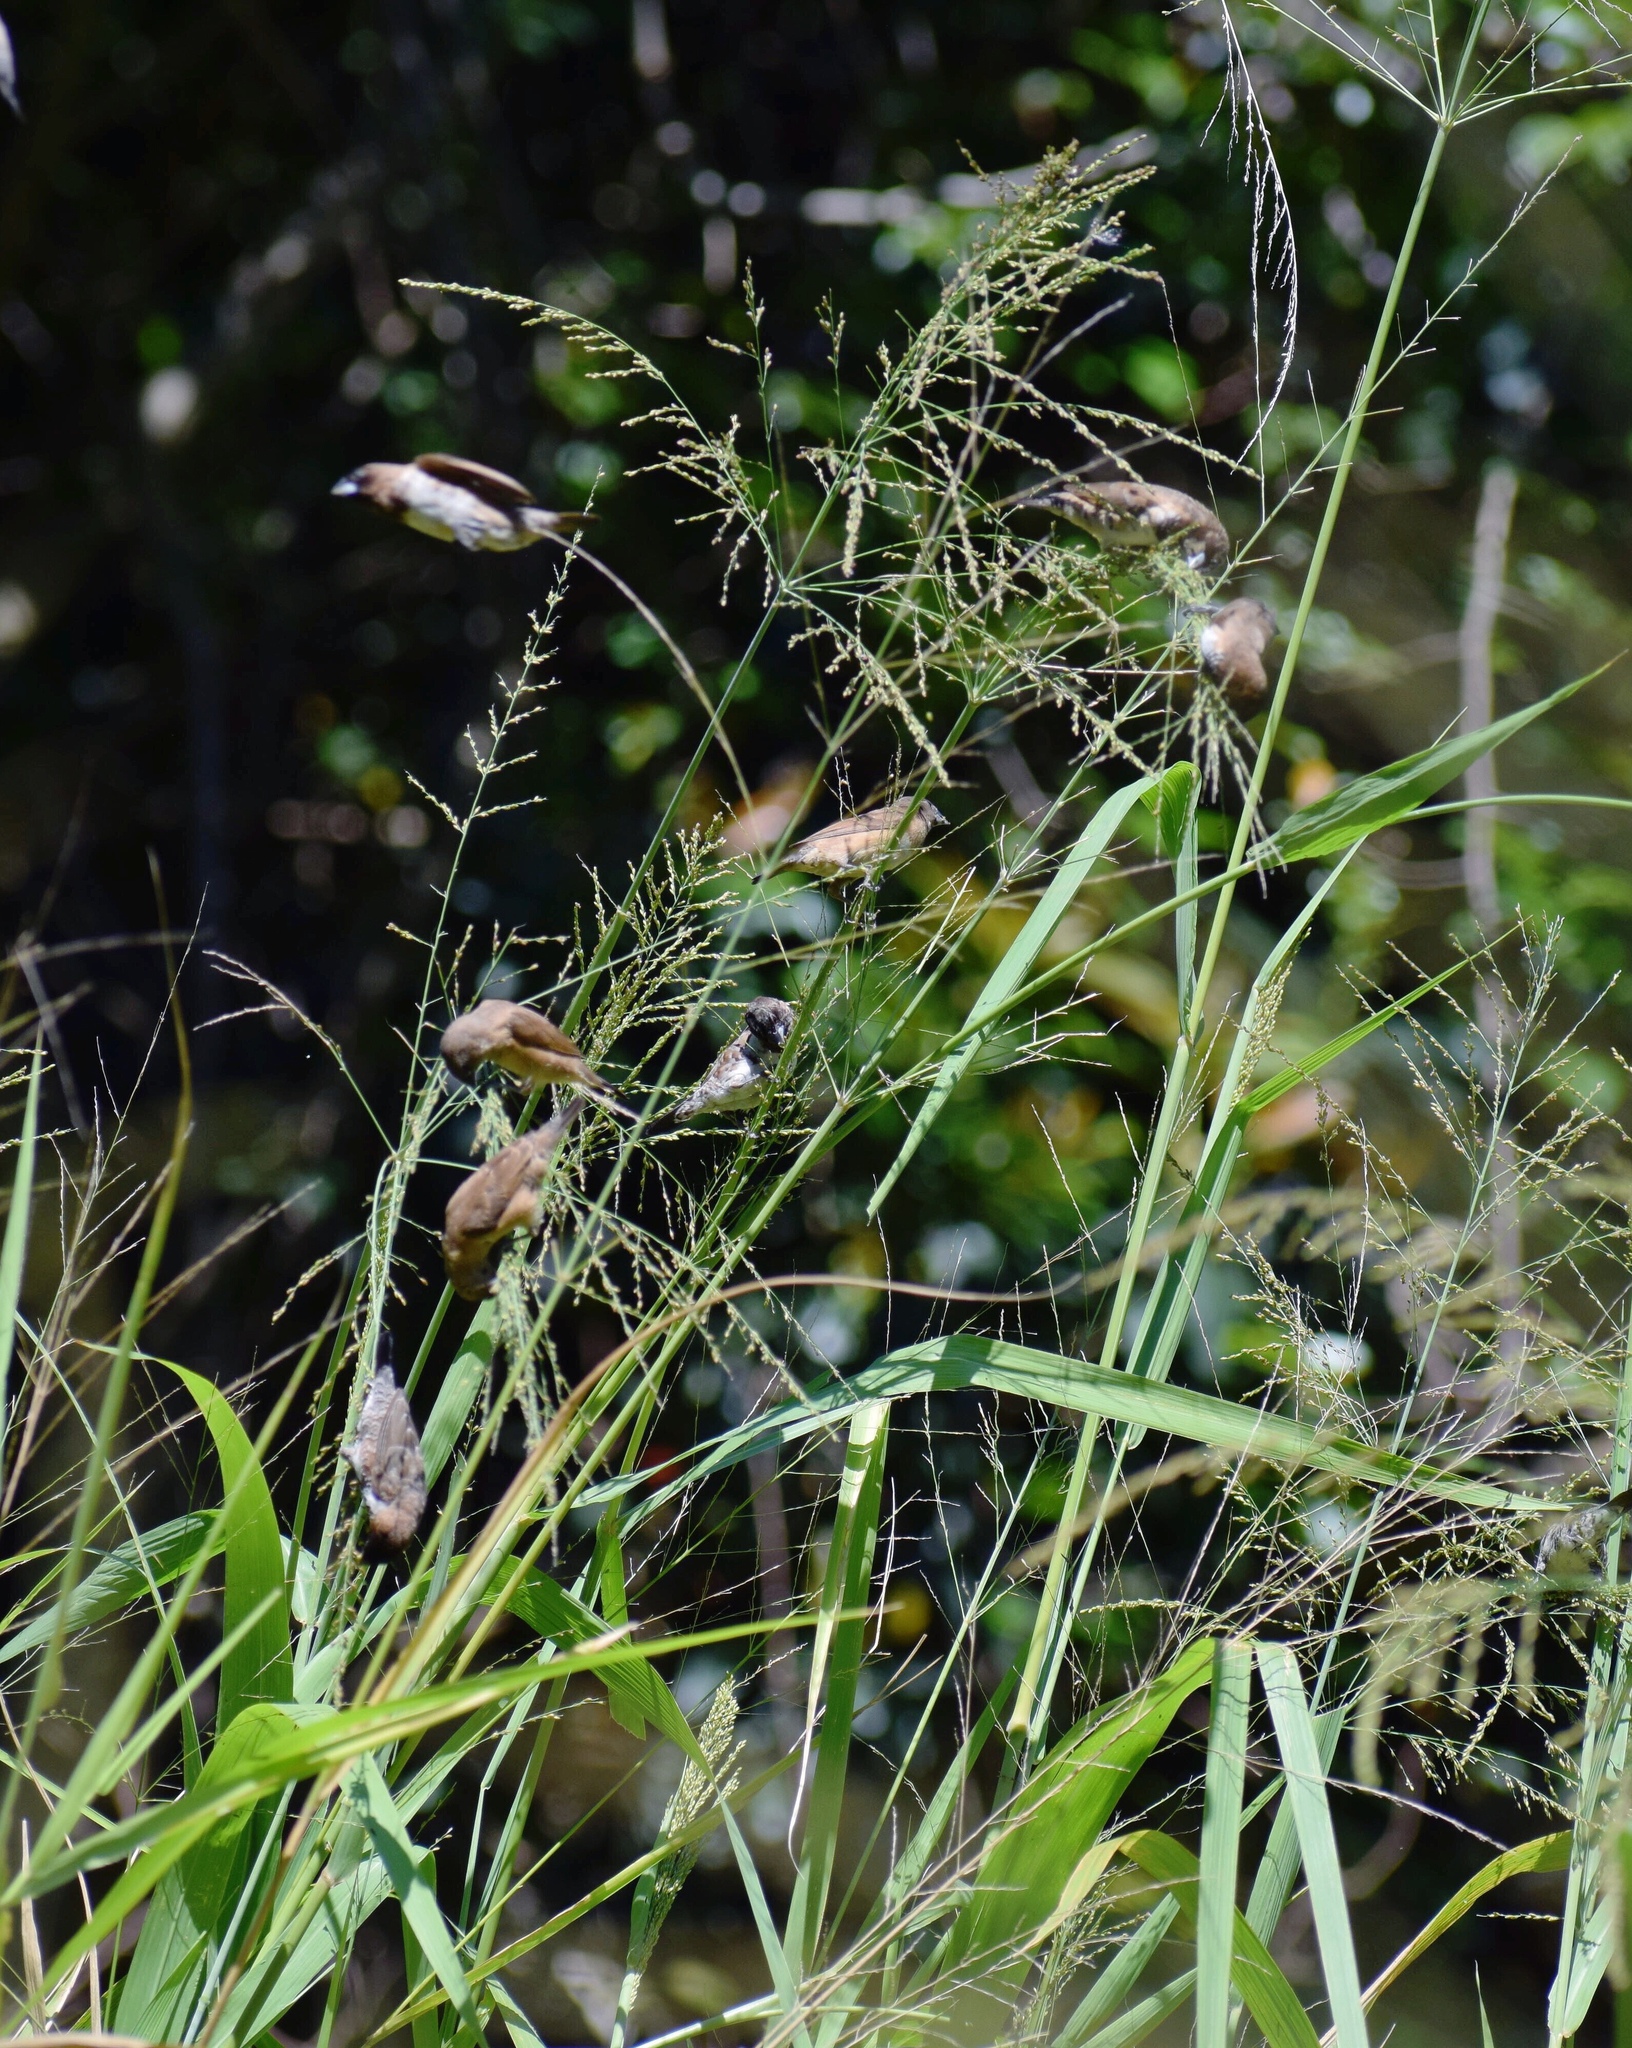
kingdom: Animalia
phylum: Chordata
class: Aves
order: Passeriformes
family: Estrildidae
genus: Lonchura
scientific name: Lonchura cucullata
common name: Bronze mannikin
